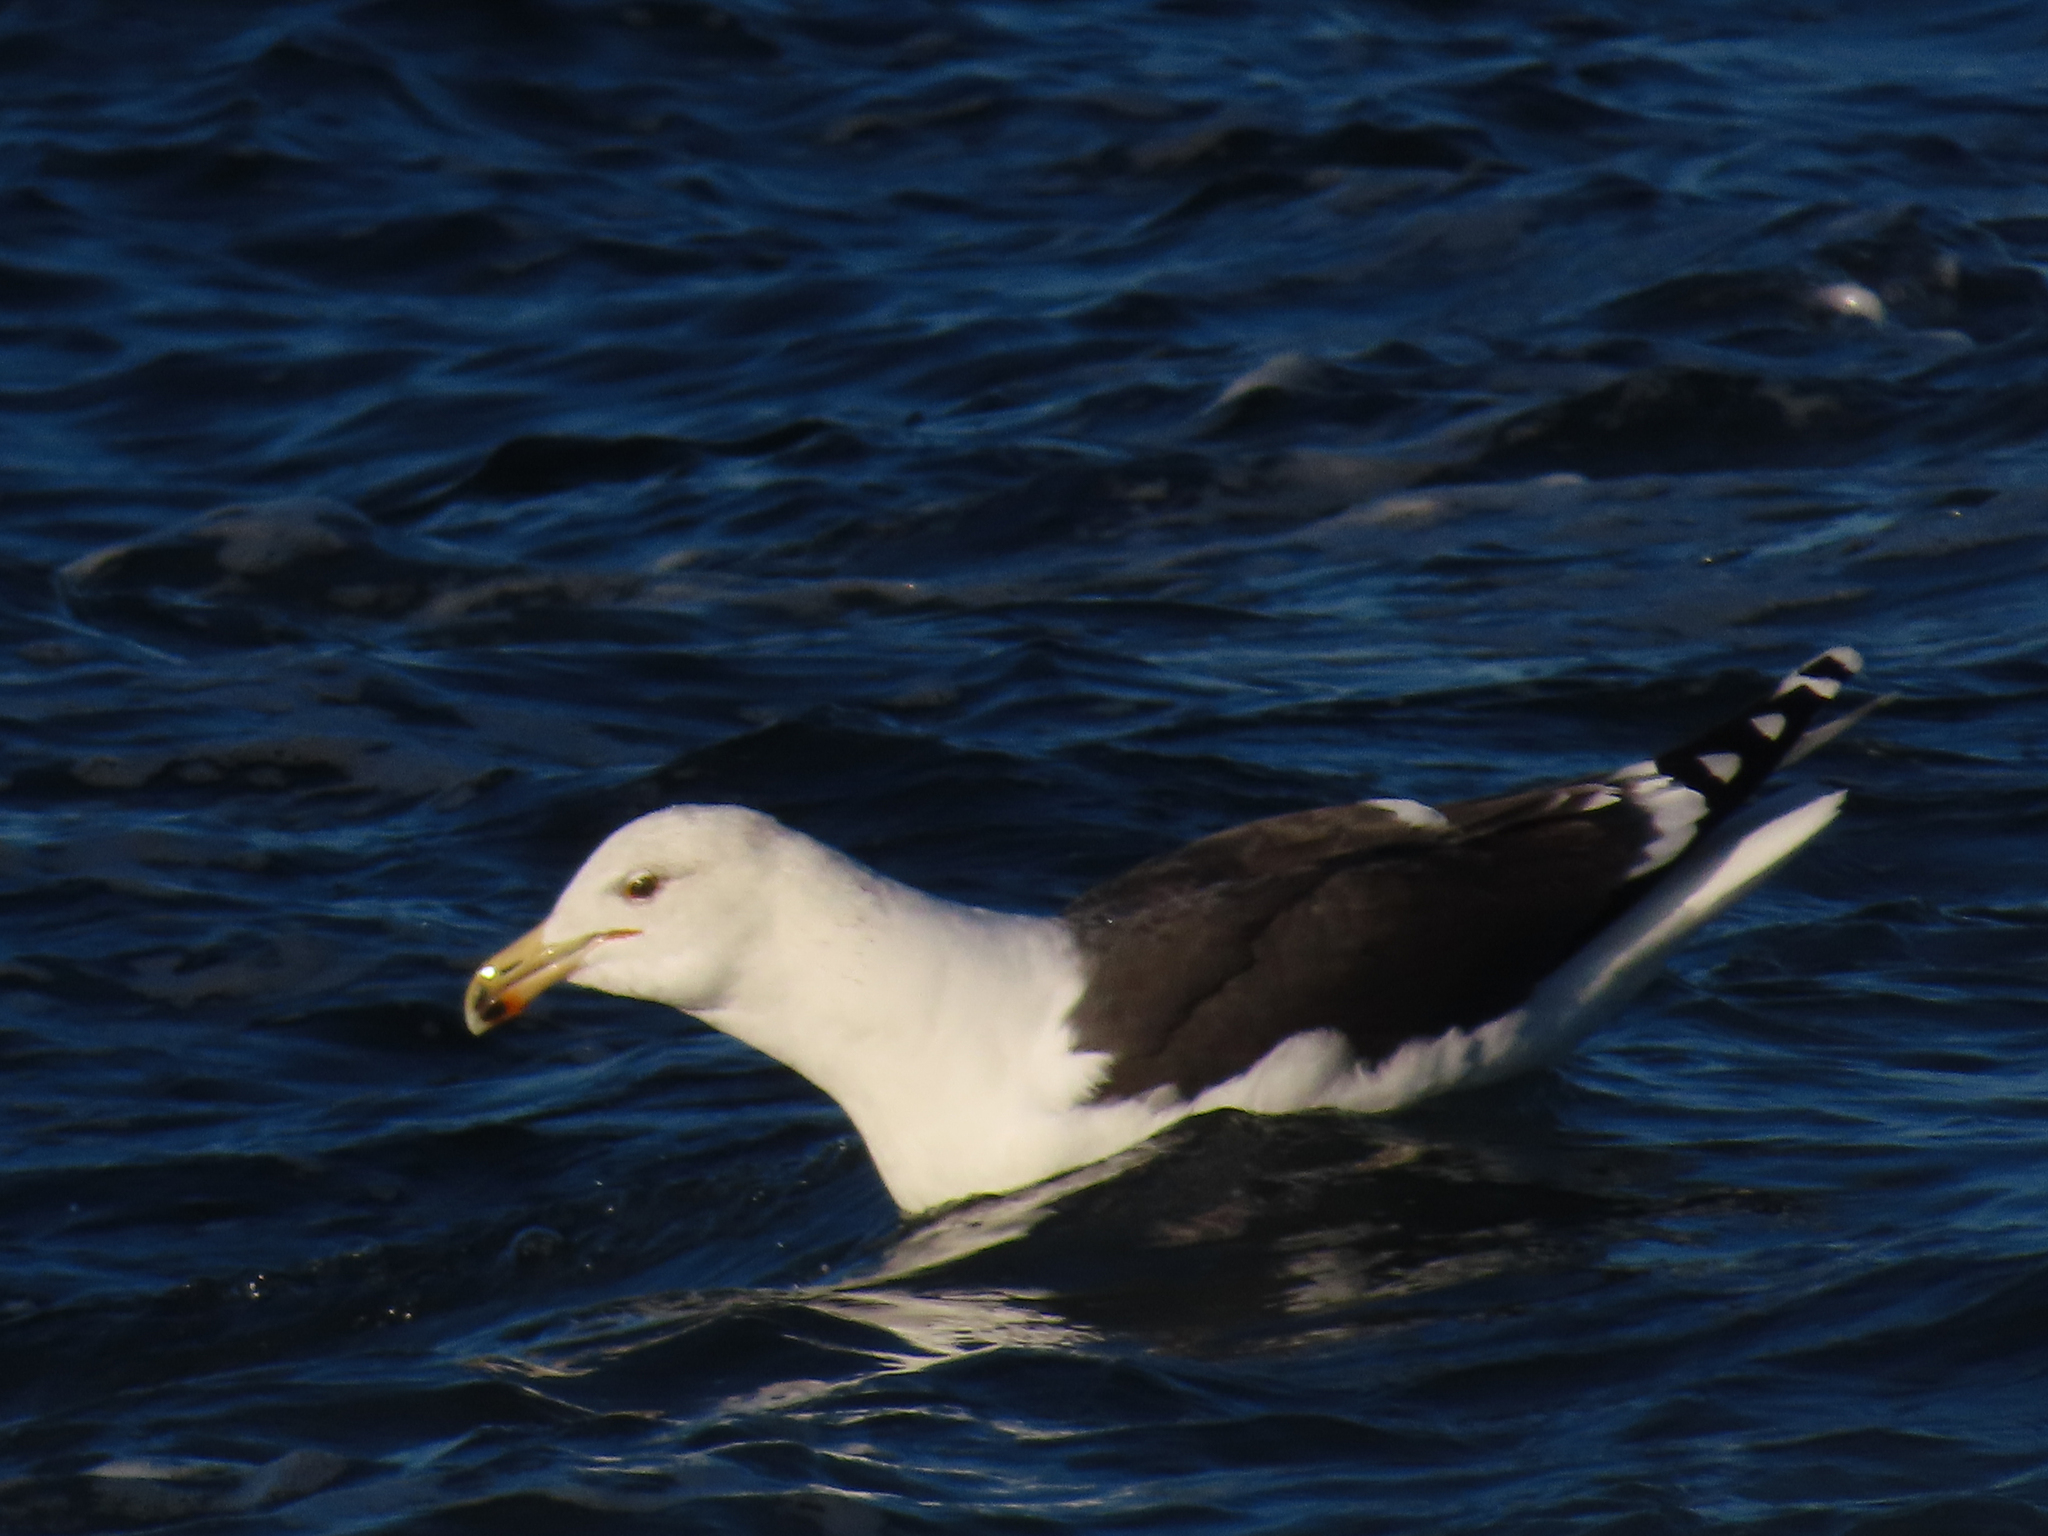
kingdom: Animalia
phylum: Chordata
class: Aves
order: Charadriiformes
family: Laridae
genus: Larus
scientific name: Larus marinus
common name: Great black-backed gull
